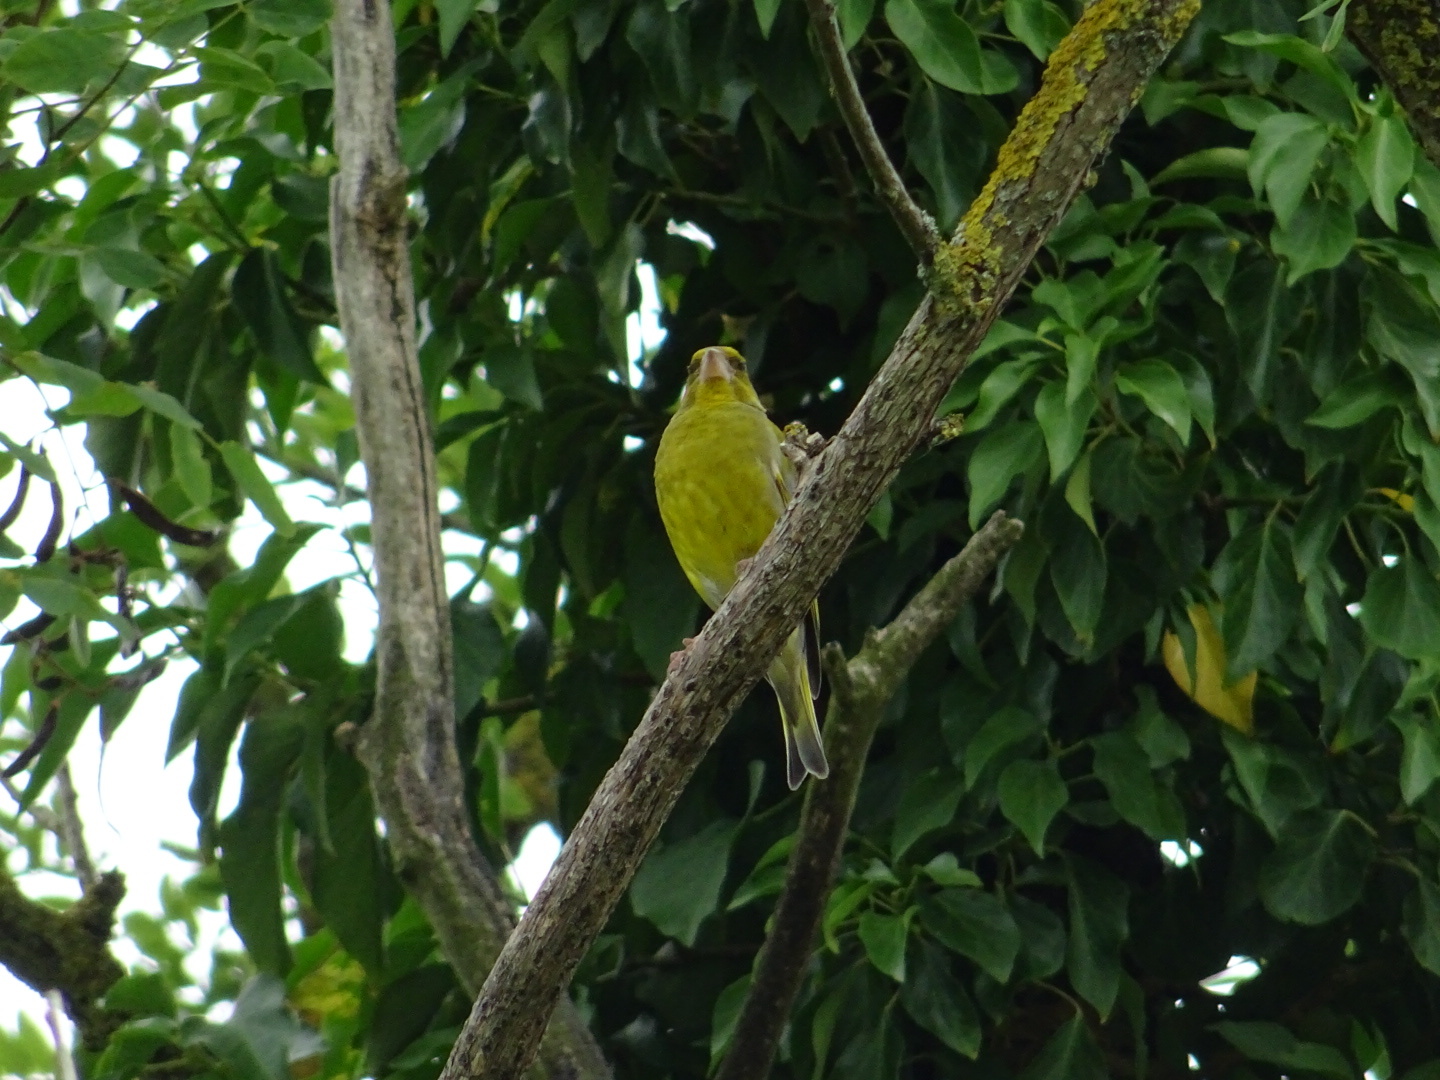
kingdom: Plantae
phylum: Tracheophyta
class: Liliopsida
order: Poales
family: Poaceae
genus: Chloris
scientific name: Chloris chloris
